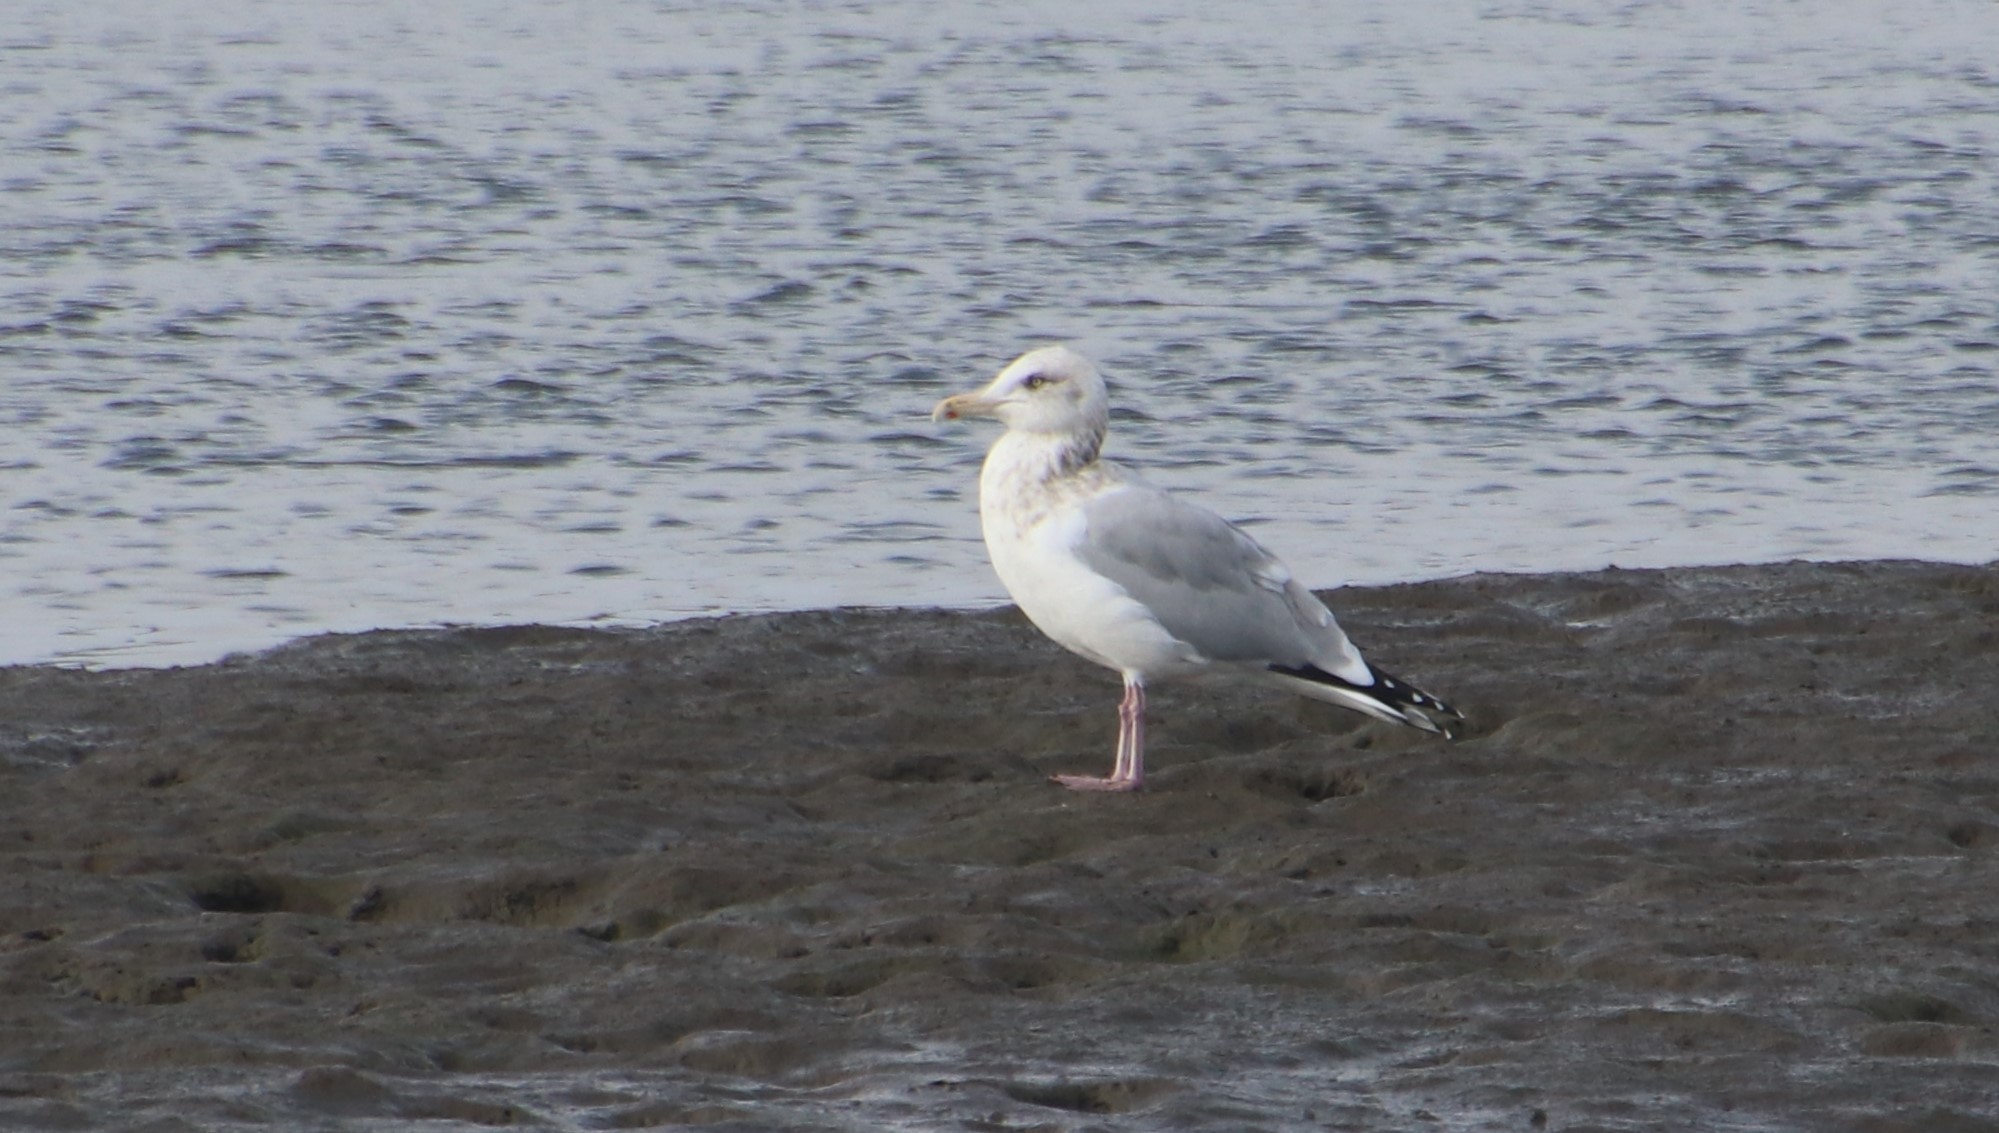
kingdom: Animalia
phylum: Chordata
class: Aves
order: Charadriiformes
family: Laridae
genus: Larus
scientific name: Larus argentatus
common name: Herring gull
